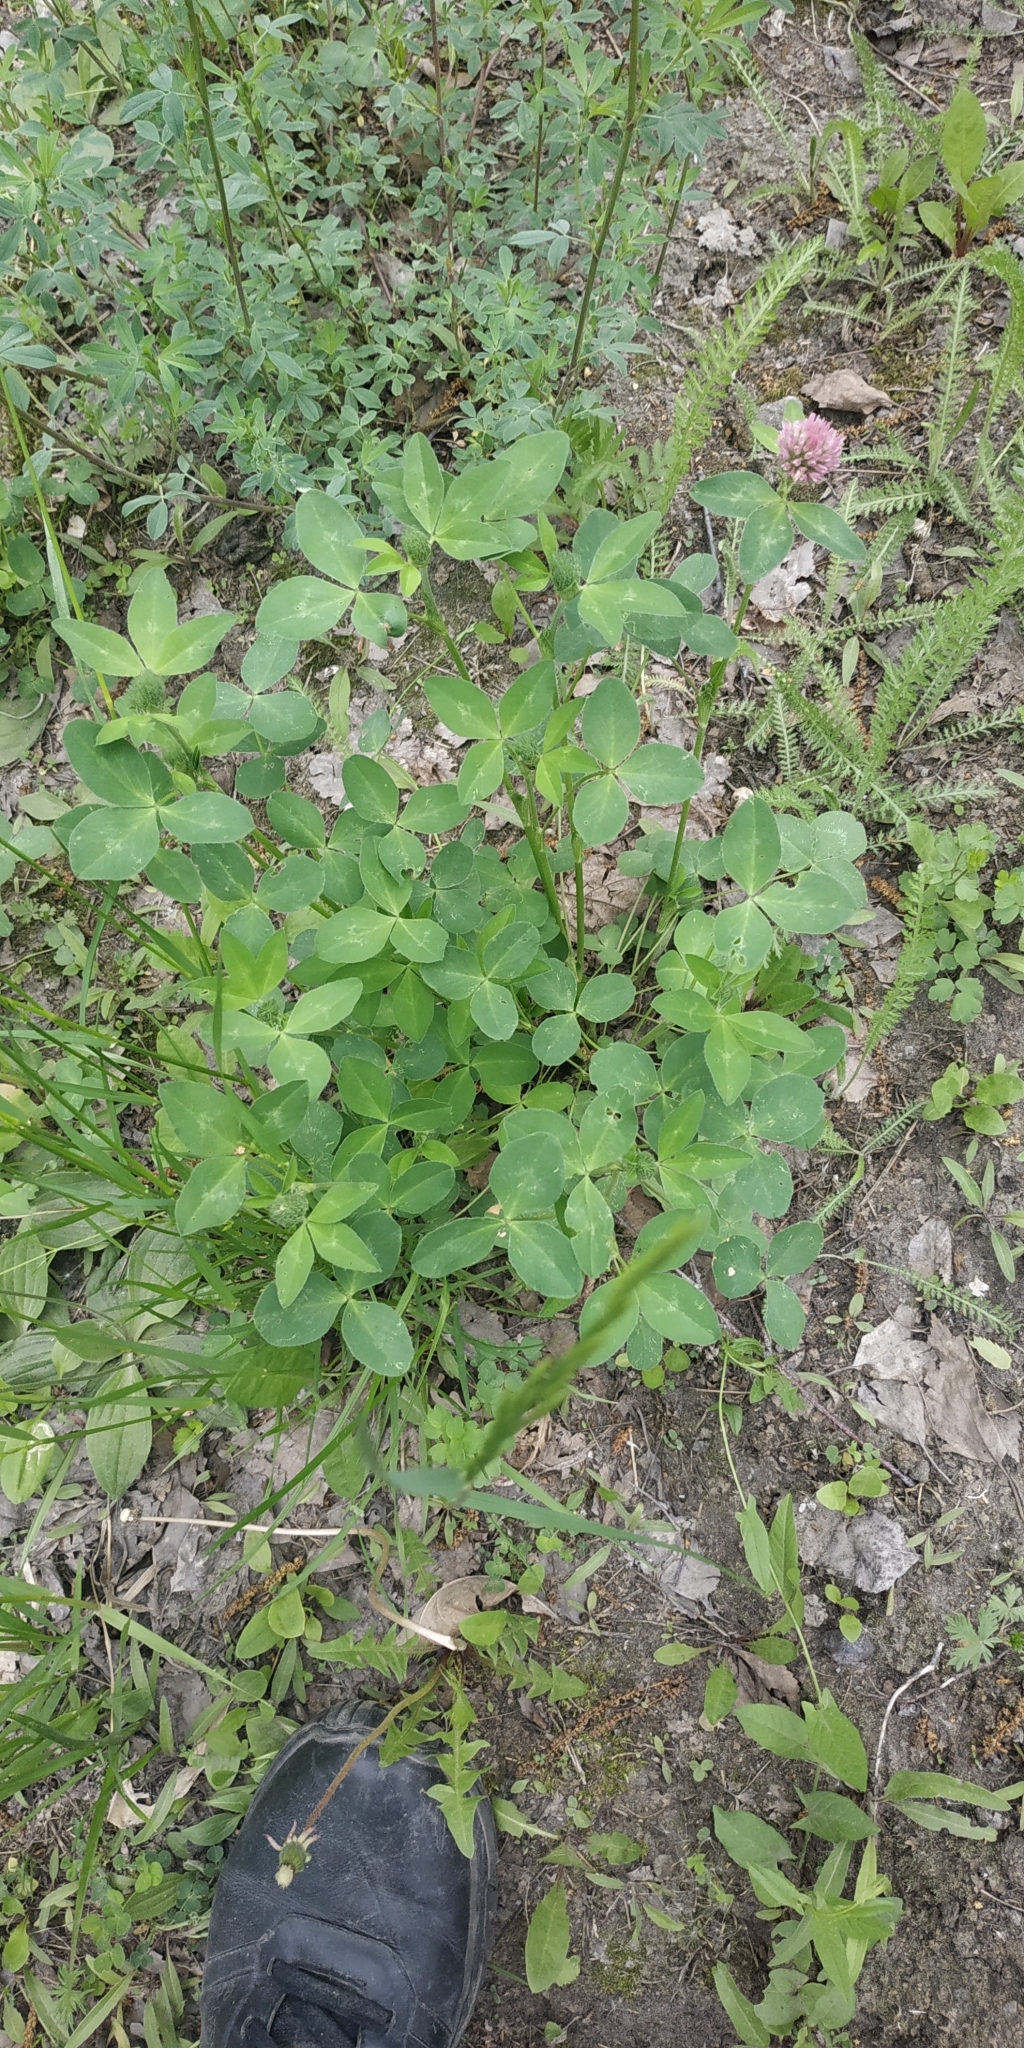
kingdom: Plantae
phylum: Tracheophyta
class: Magnoliopsida
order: Fabales
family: Fabaceae
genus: Trifolium
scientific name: Trifolium pratense
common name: Red clover
